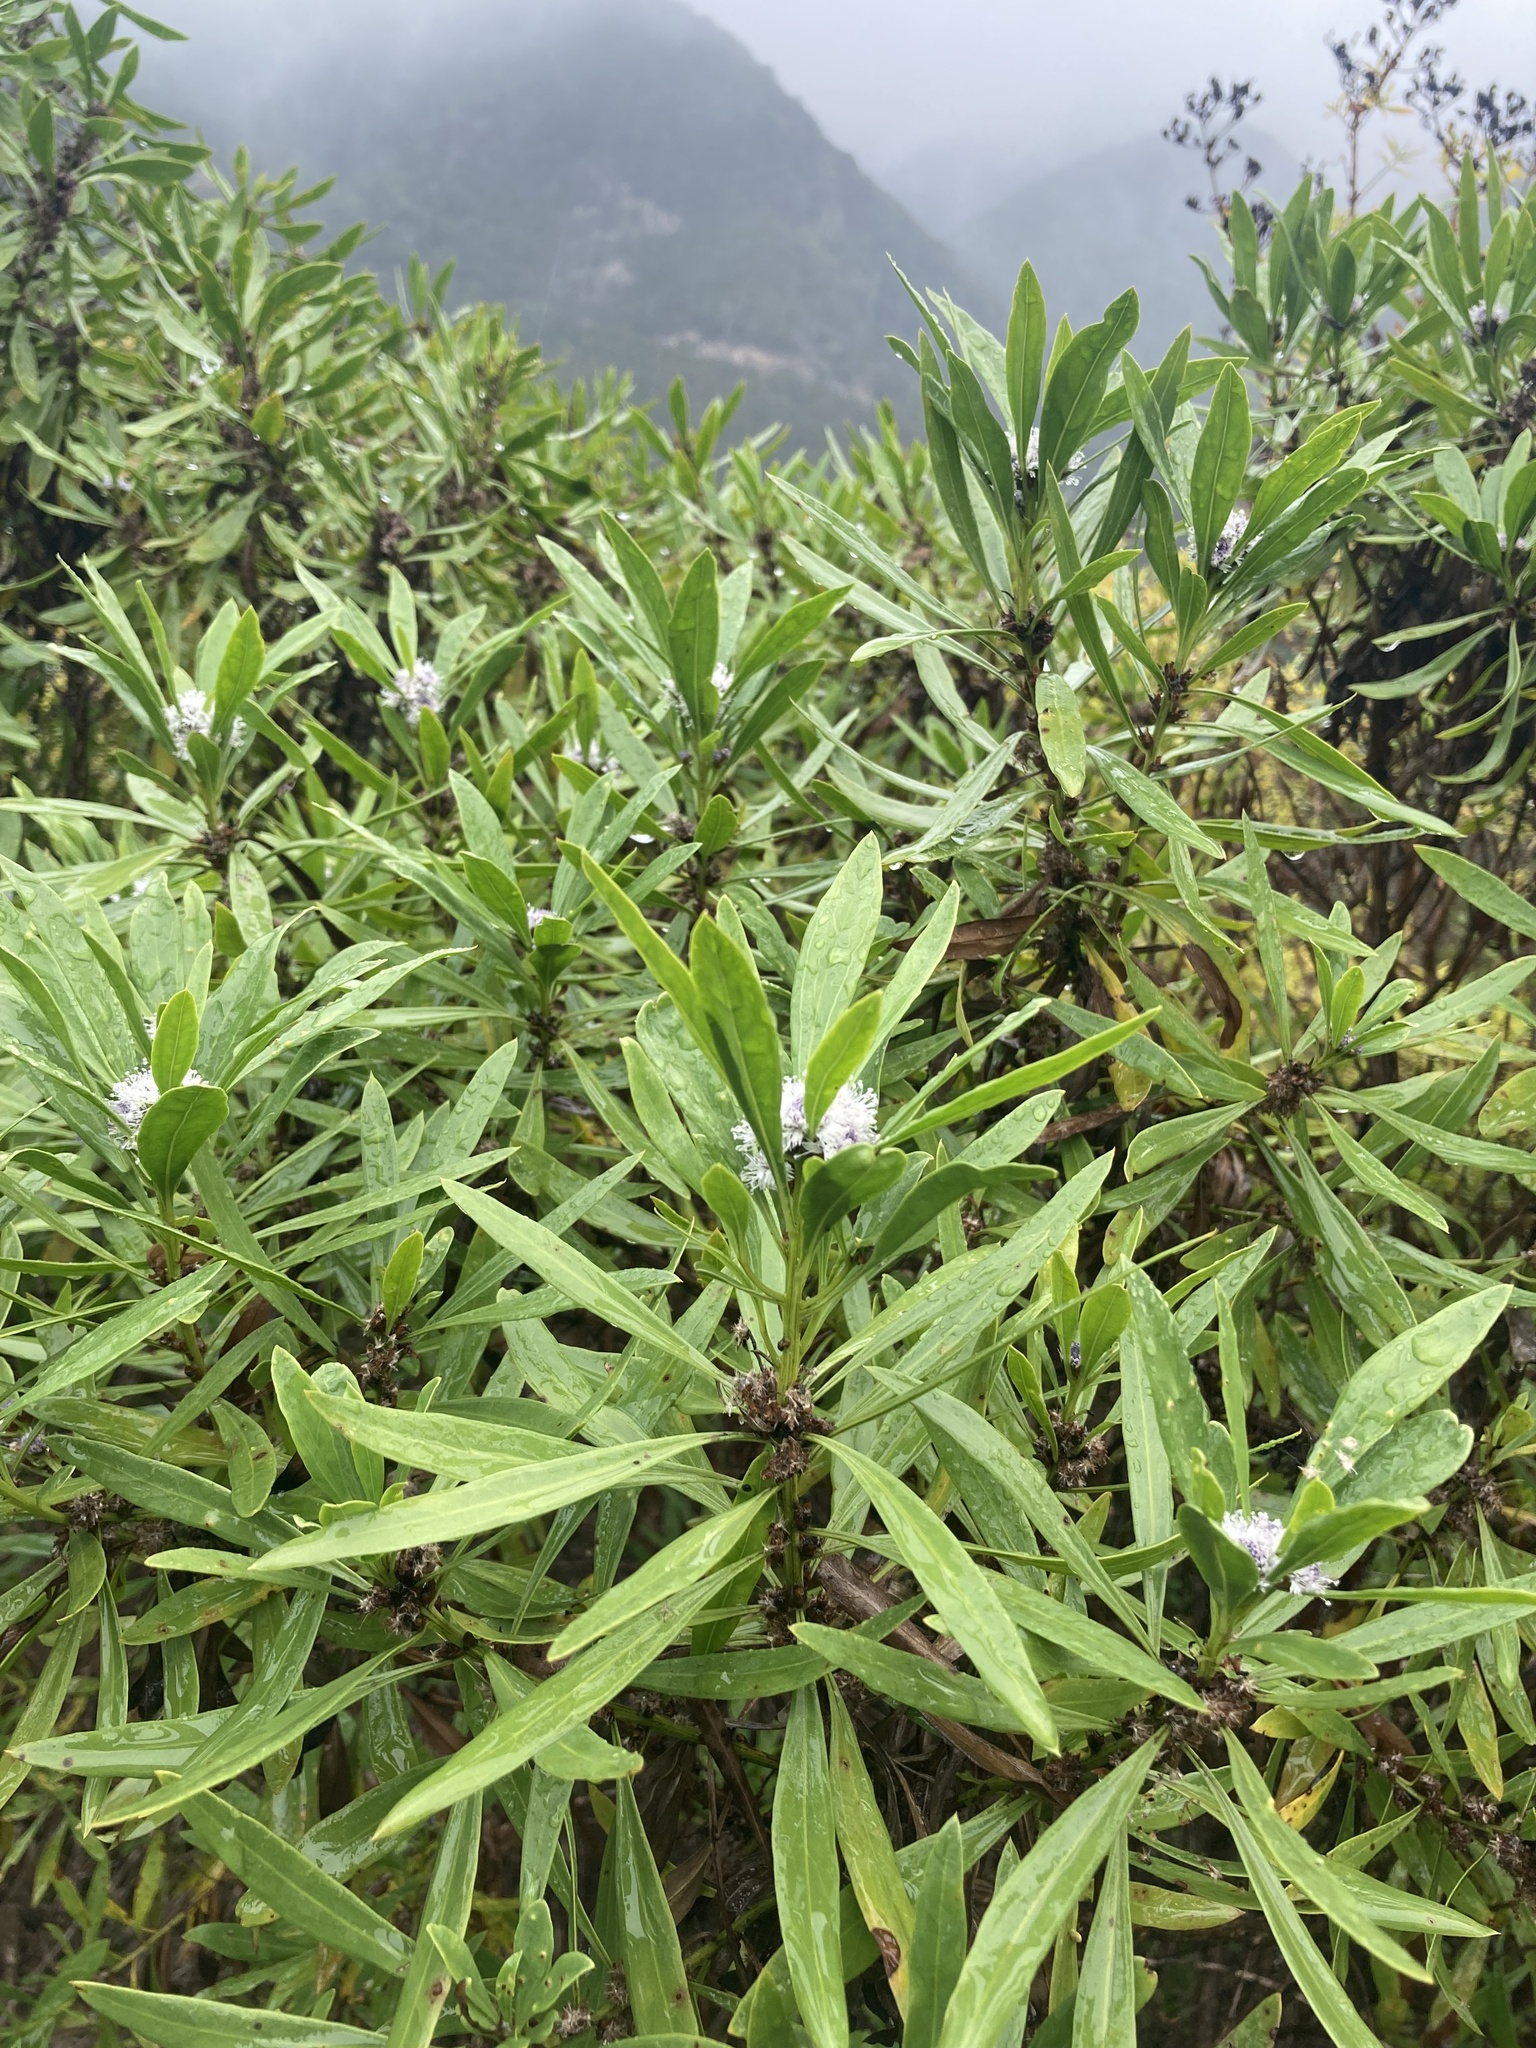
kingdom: Plantae
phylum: Tracheophyta
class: Magnoliopsida
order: Lamiales
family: Plantaginaceae
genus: Globularia
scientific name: Globularia salicina
